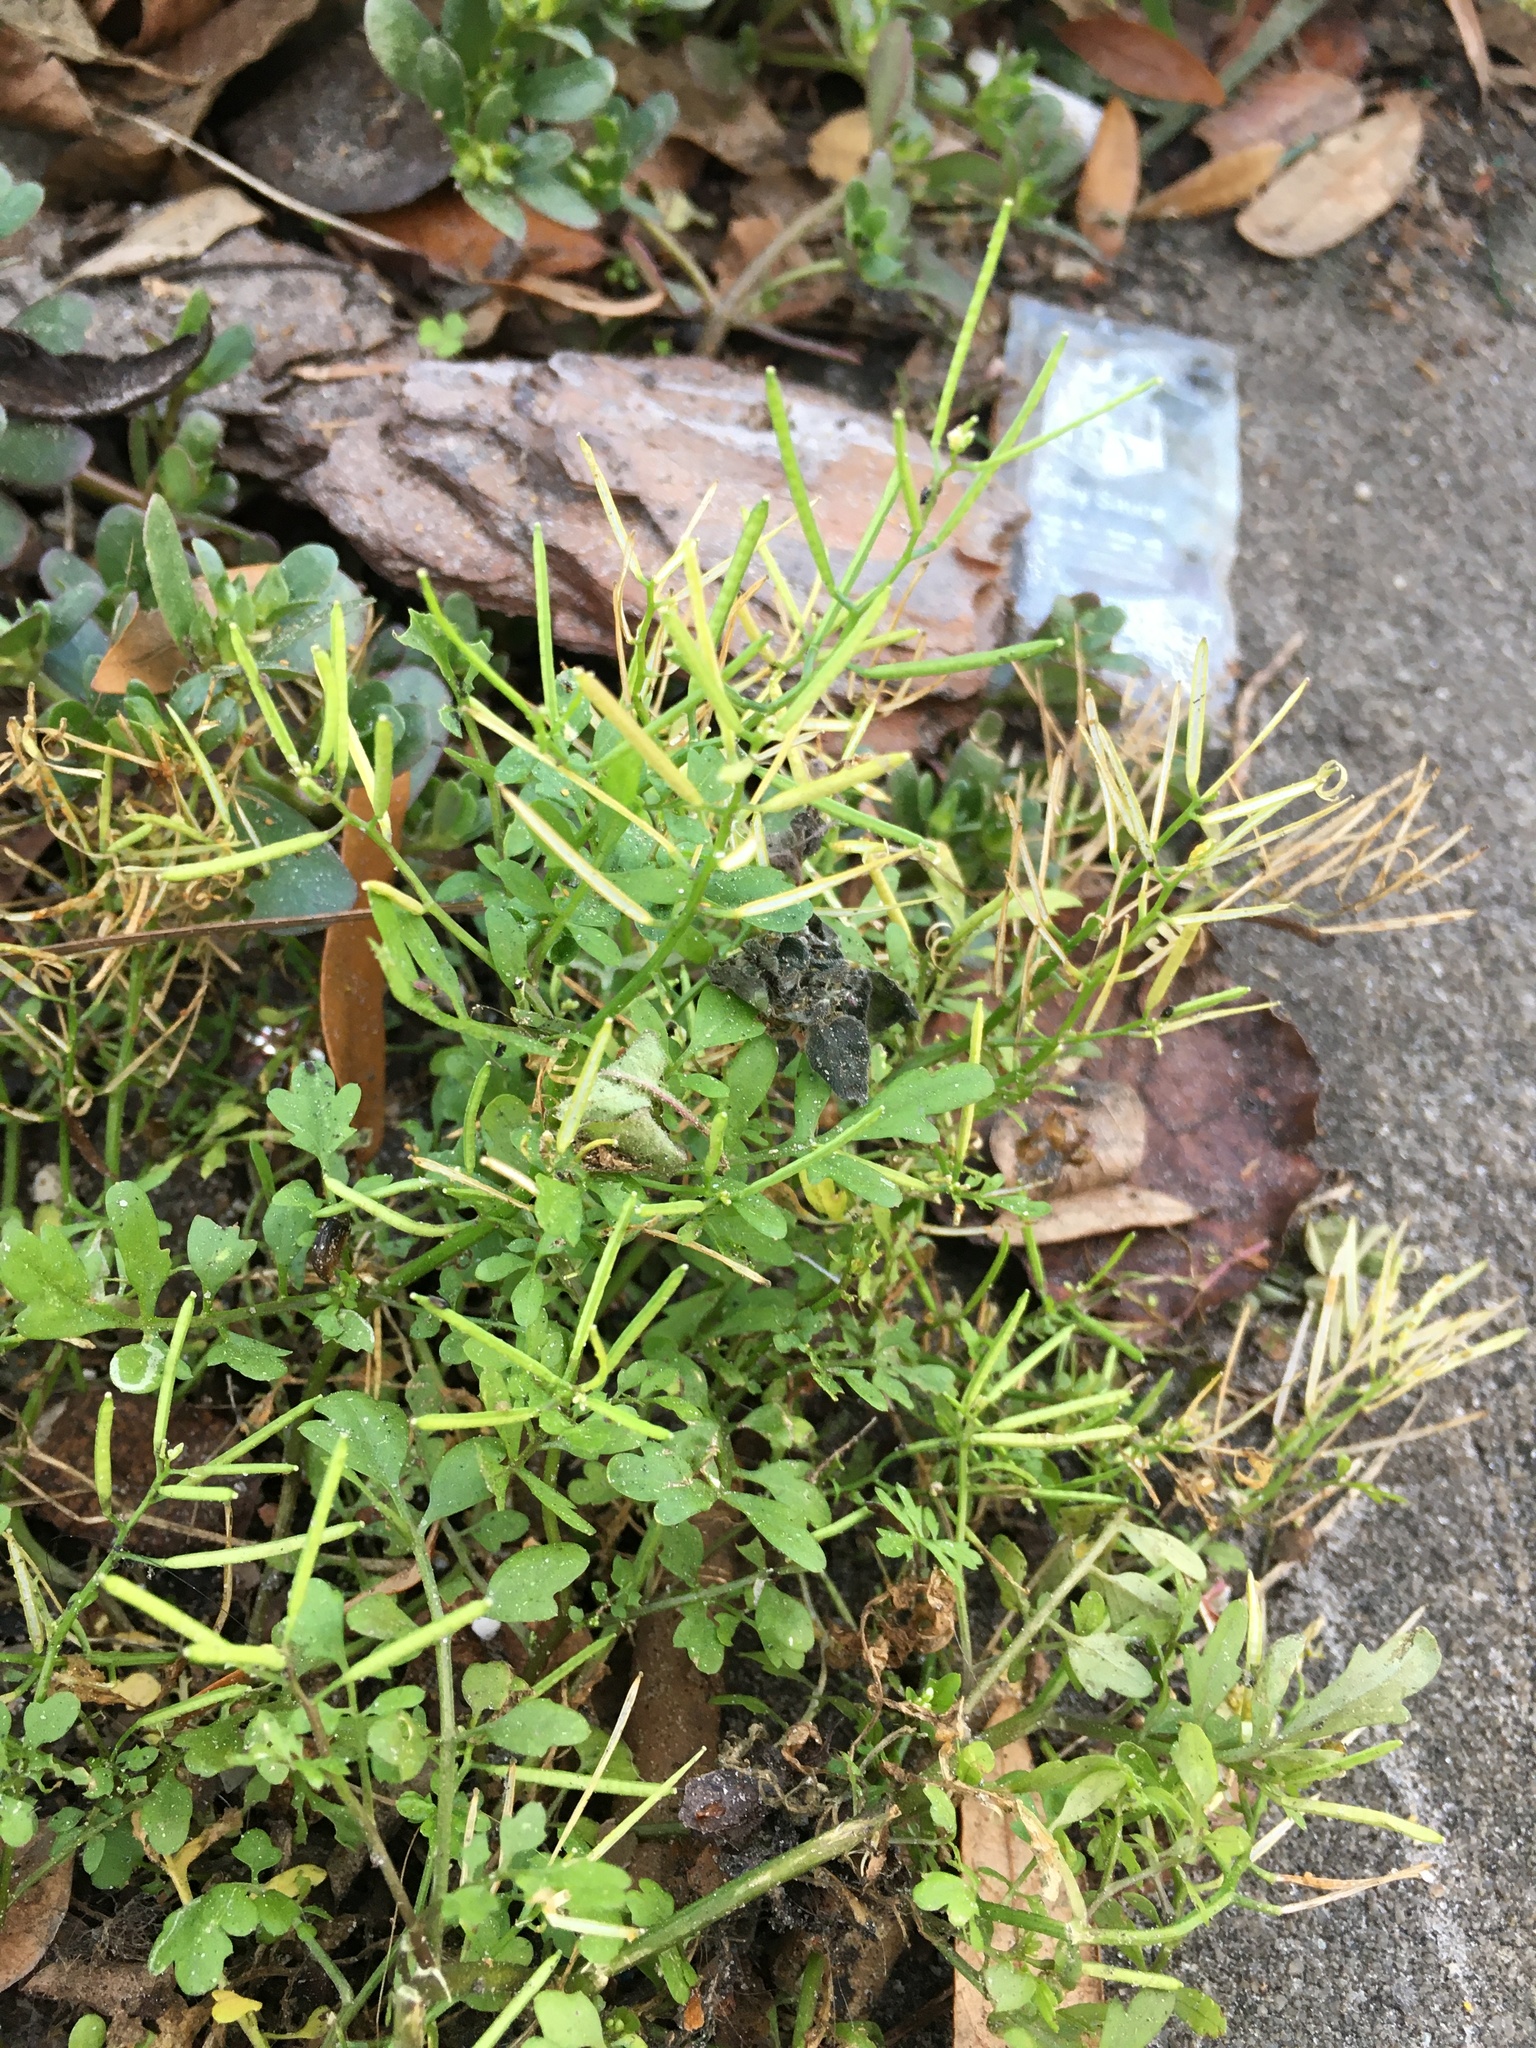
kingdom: Plantae
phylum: Tracheophyta
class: Magnoliopsida
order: Brassicales
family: Brassicaceae
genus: Cardamine
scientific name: Cardamine occulta
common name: Asian wavy bittercress
